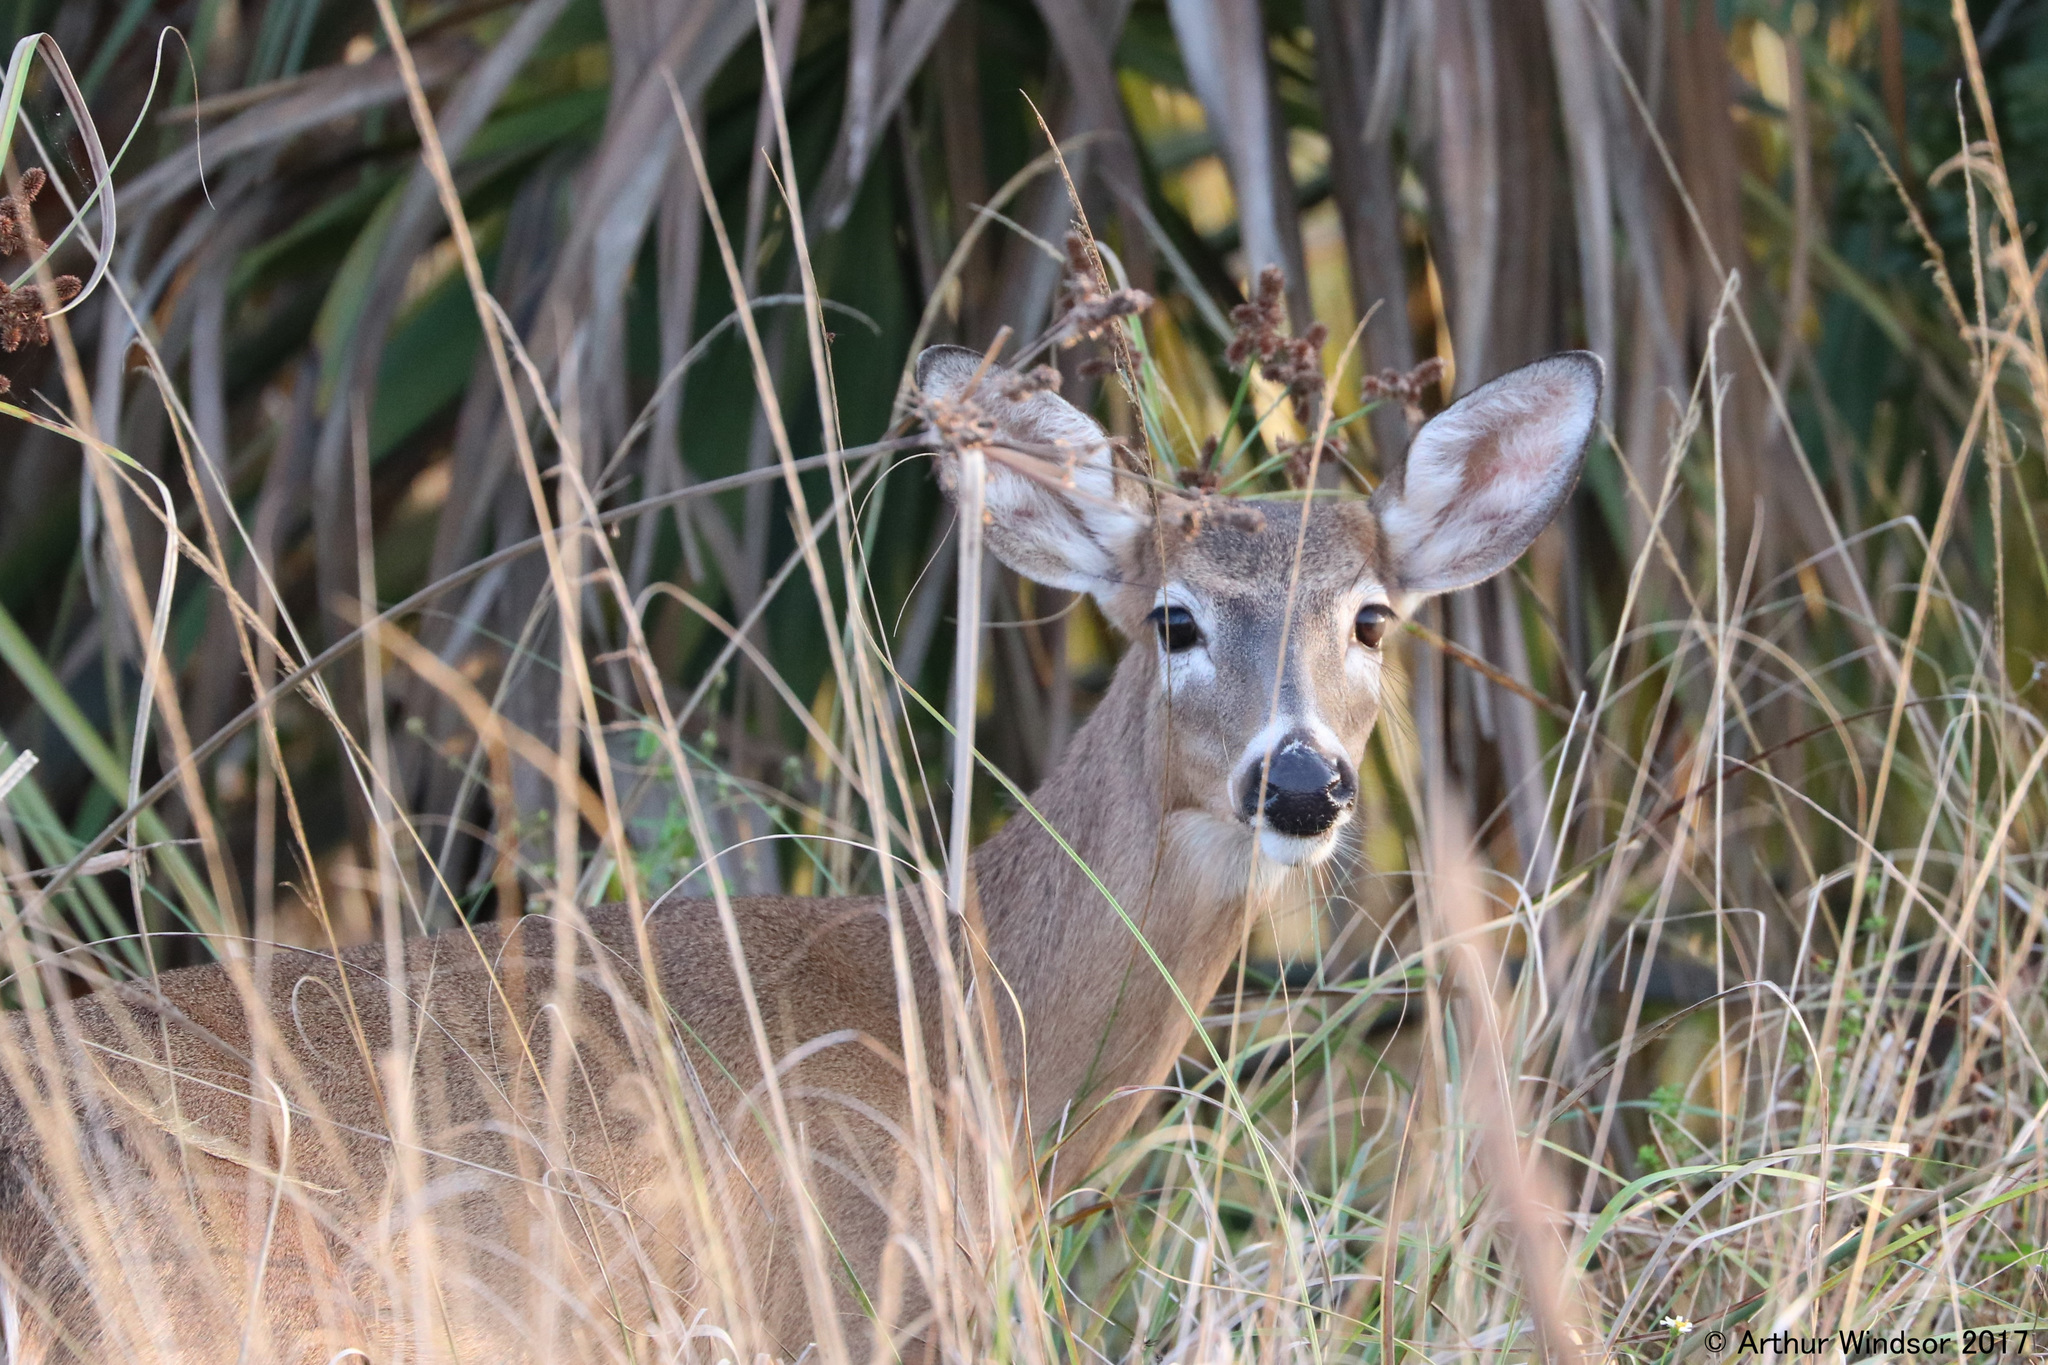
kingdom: Animalia
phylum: Chordata
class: Mammalia
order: Artiodactyla
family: Cervidae
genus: Odocoileus
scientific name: Odocoileus virginianus
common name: White-tailed deer
